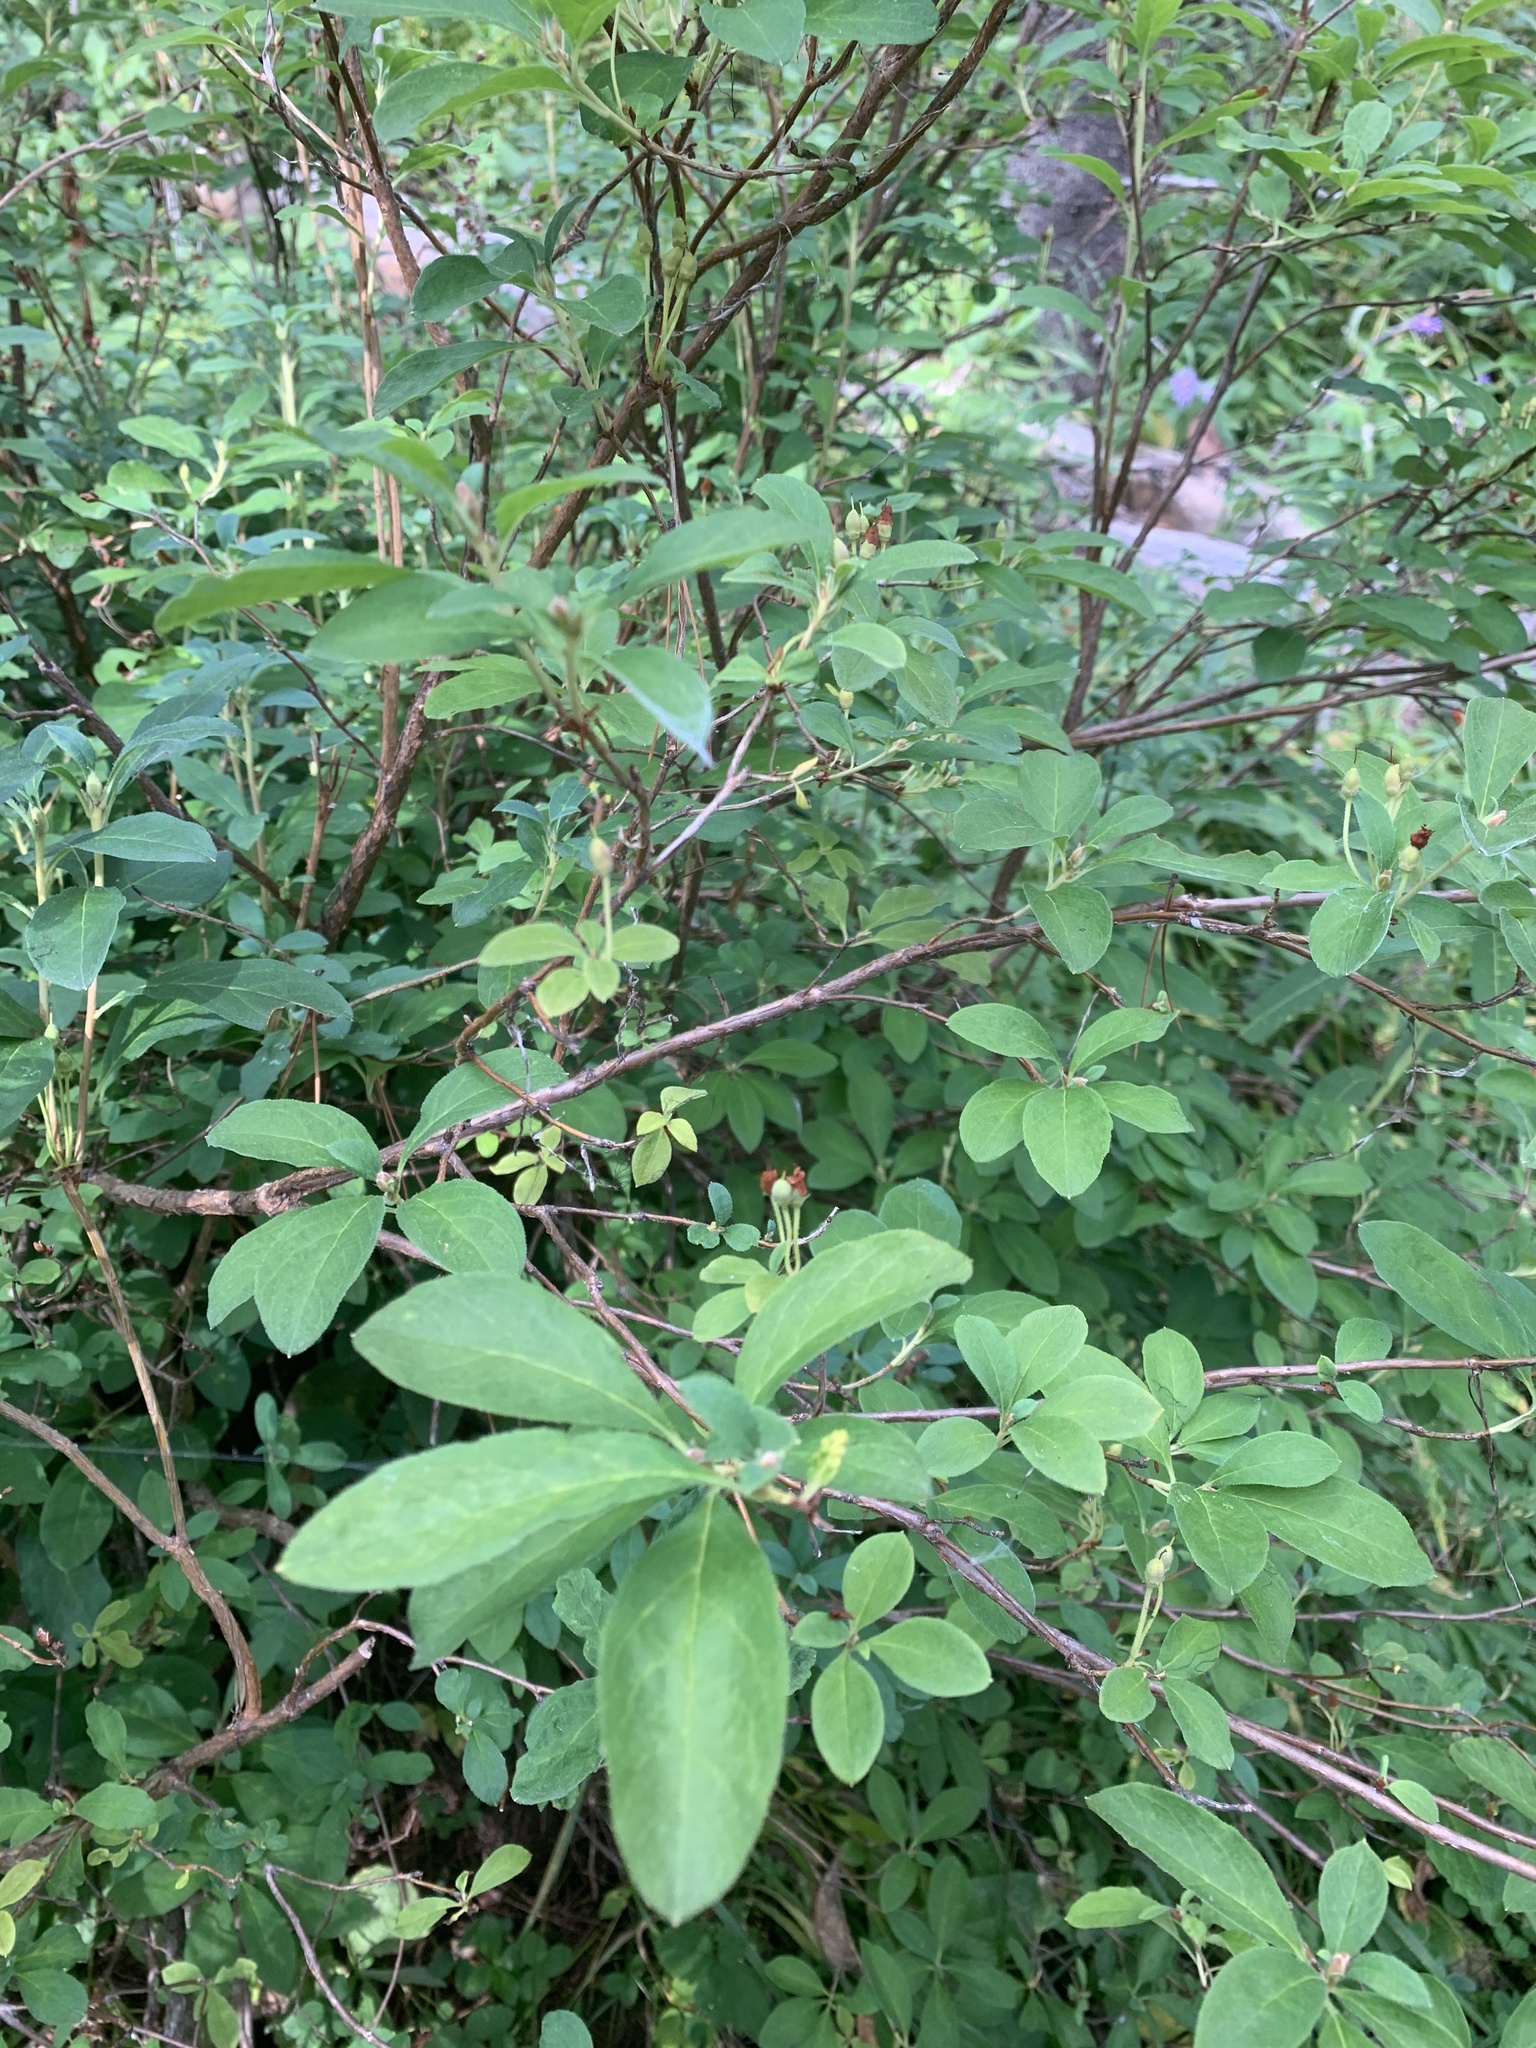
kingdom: Plantae
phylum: Tracheophyta
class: Magnoliopsida
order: Ericales
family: Ericaceae
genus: Rhododendron
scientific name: Rhododendron menziesii
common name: Pacific menziesia
